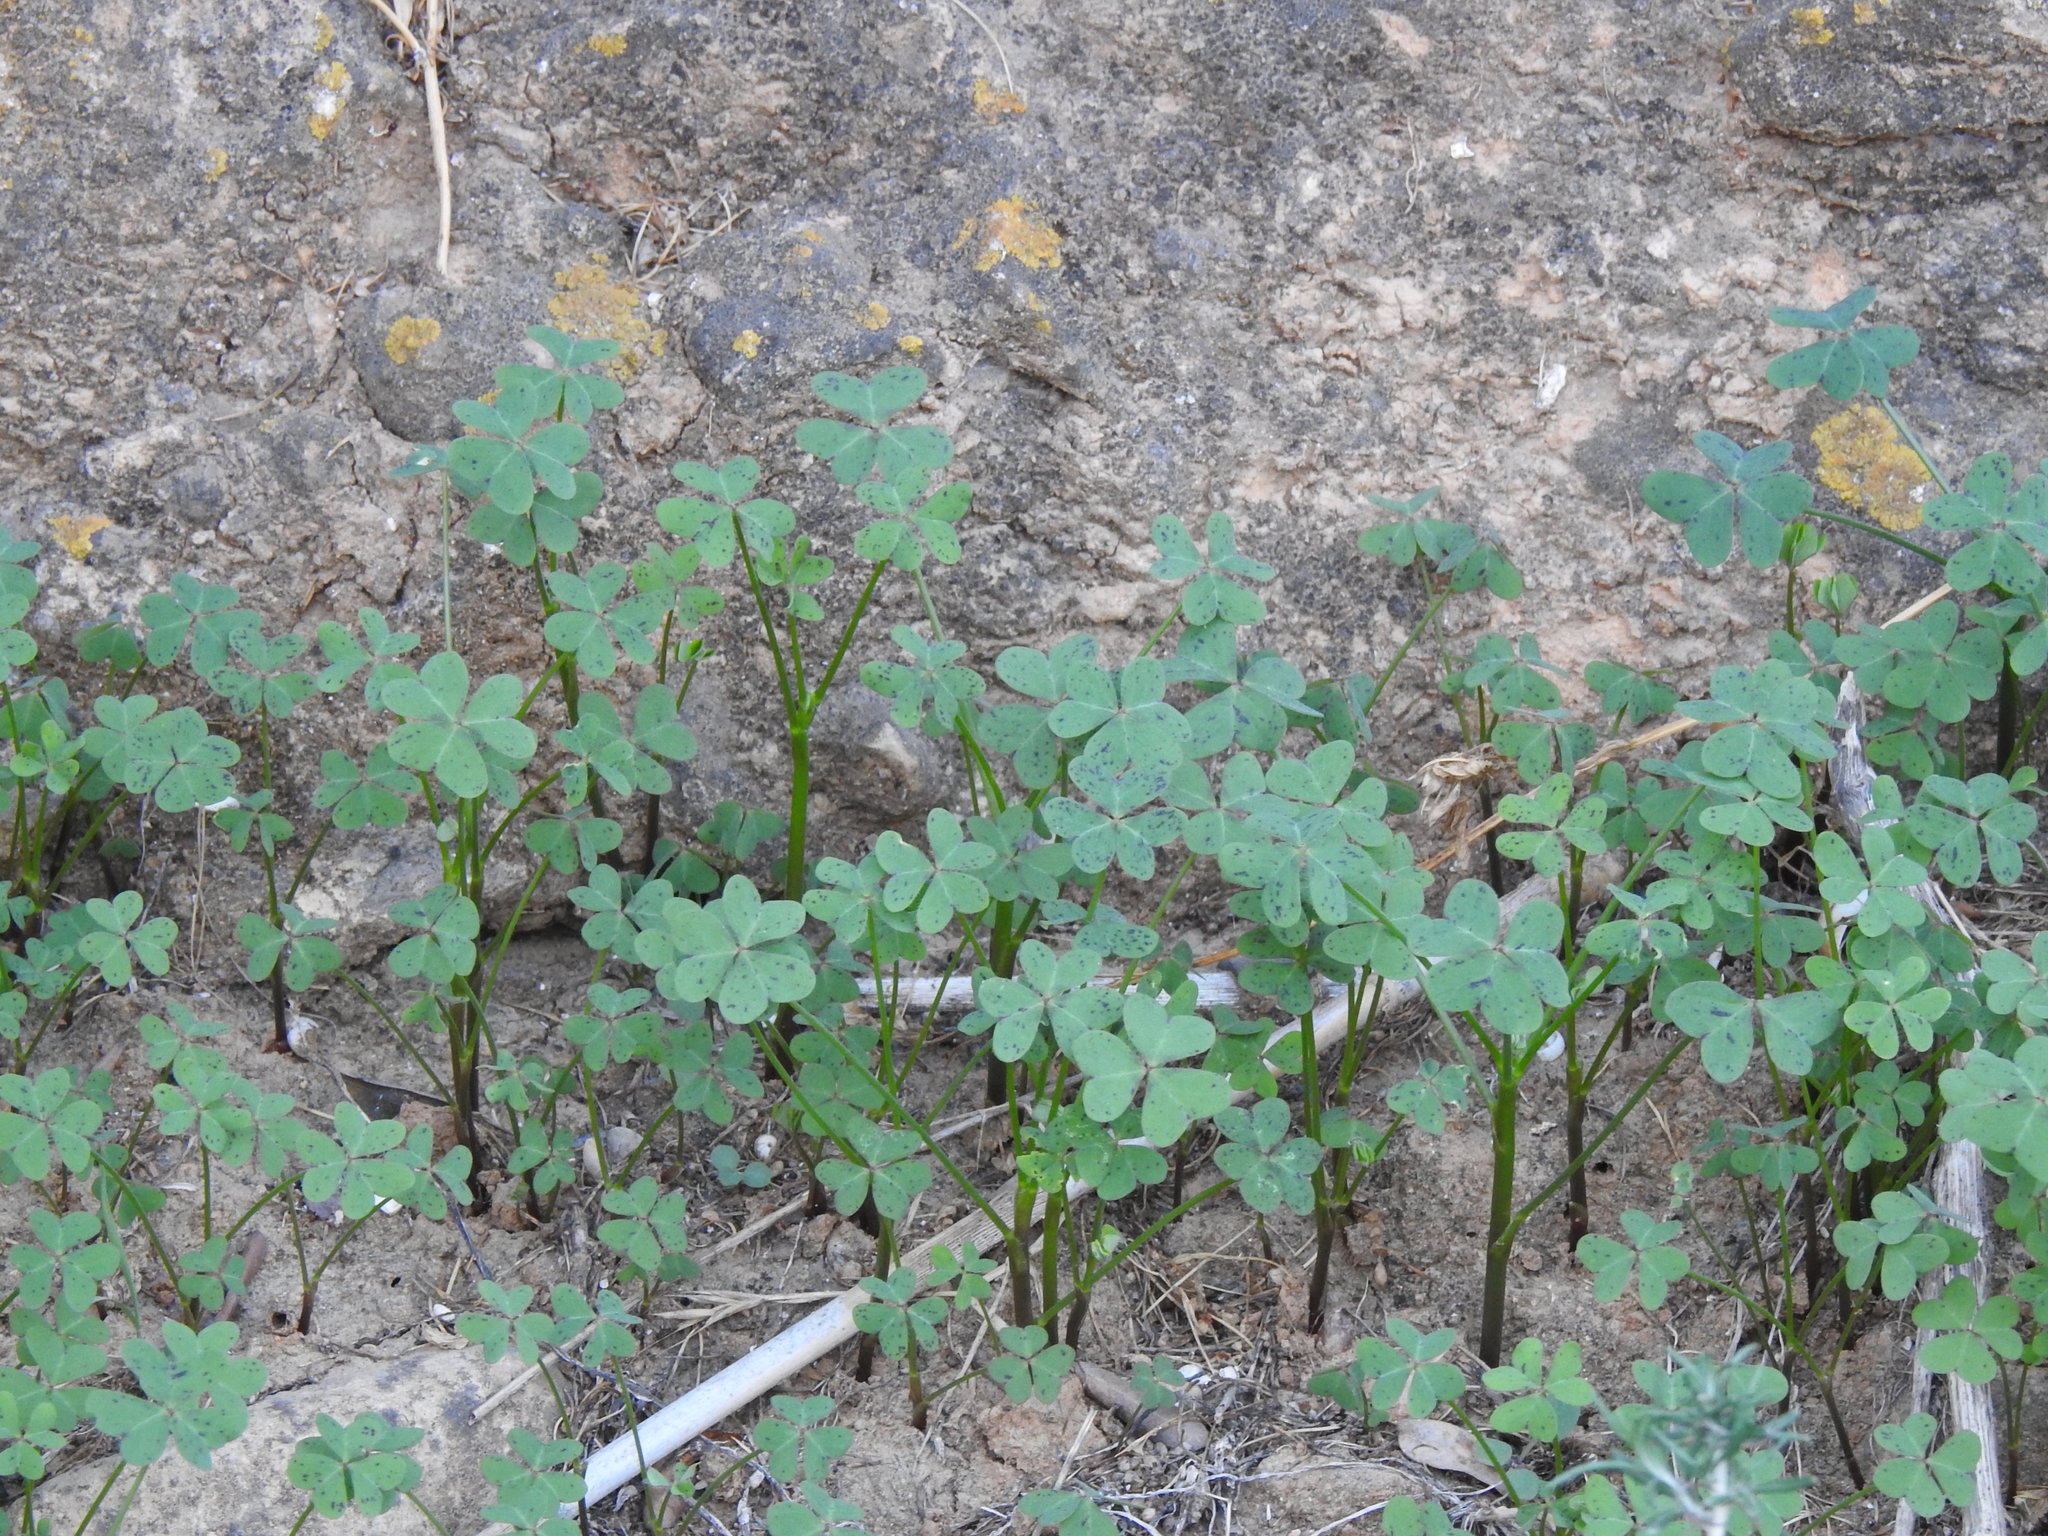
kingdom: Plantae
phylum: Tracheophyta
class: Magnoliopsida
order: Oxalidales
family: Oxalidaceae
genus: Oxalis
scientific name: Oxalis pes-caprae
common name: Bermuda-buttercup
